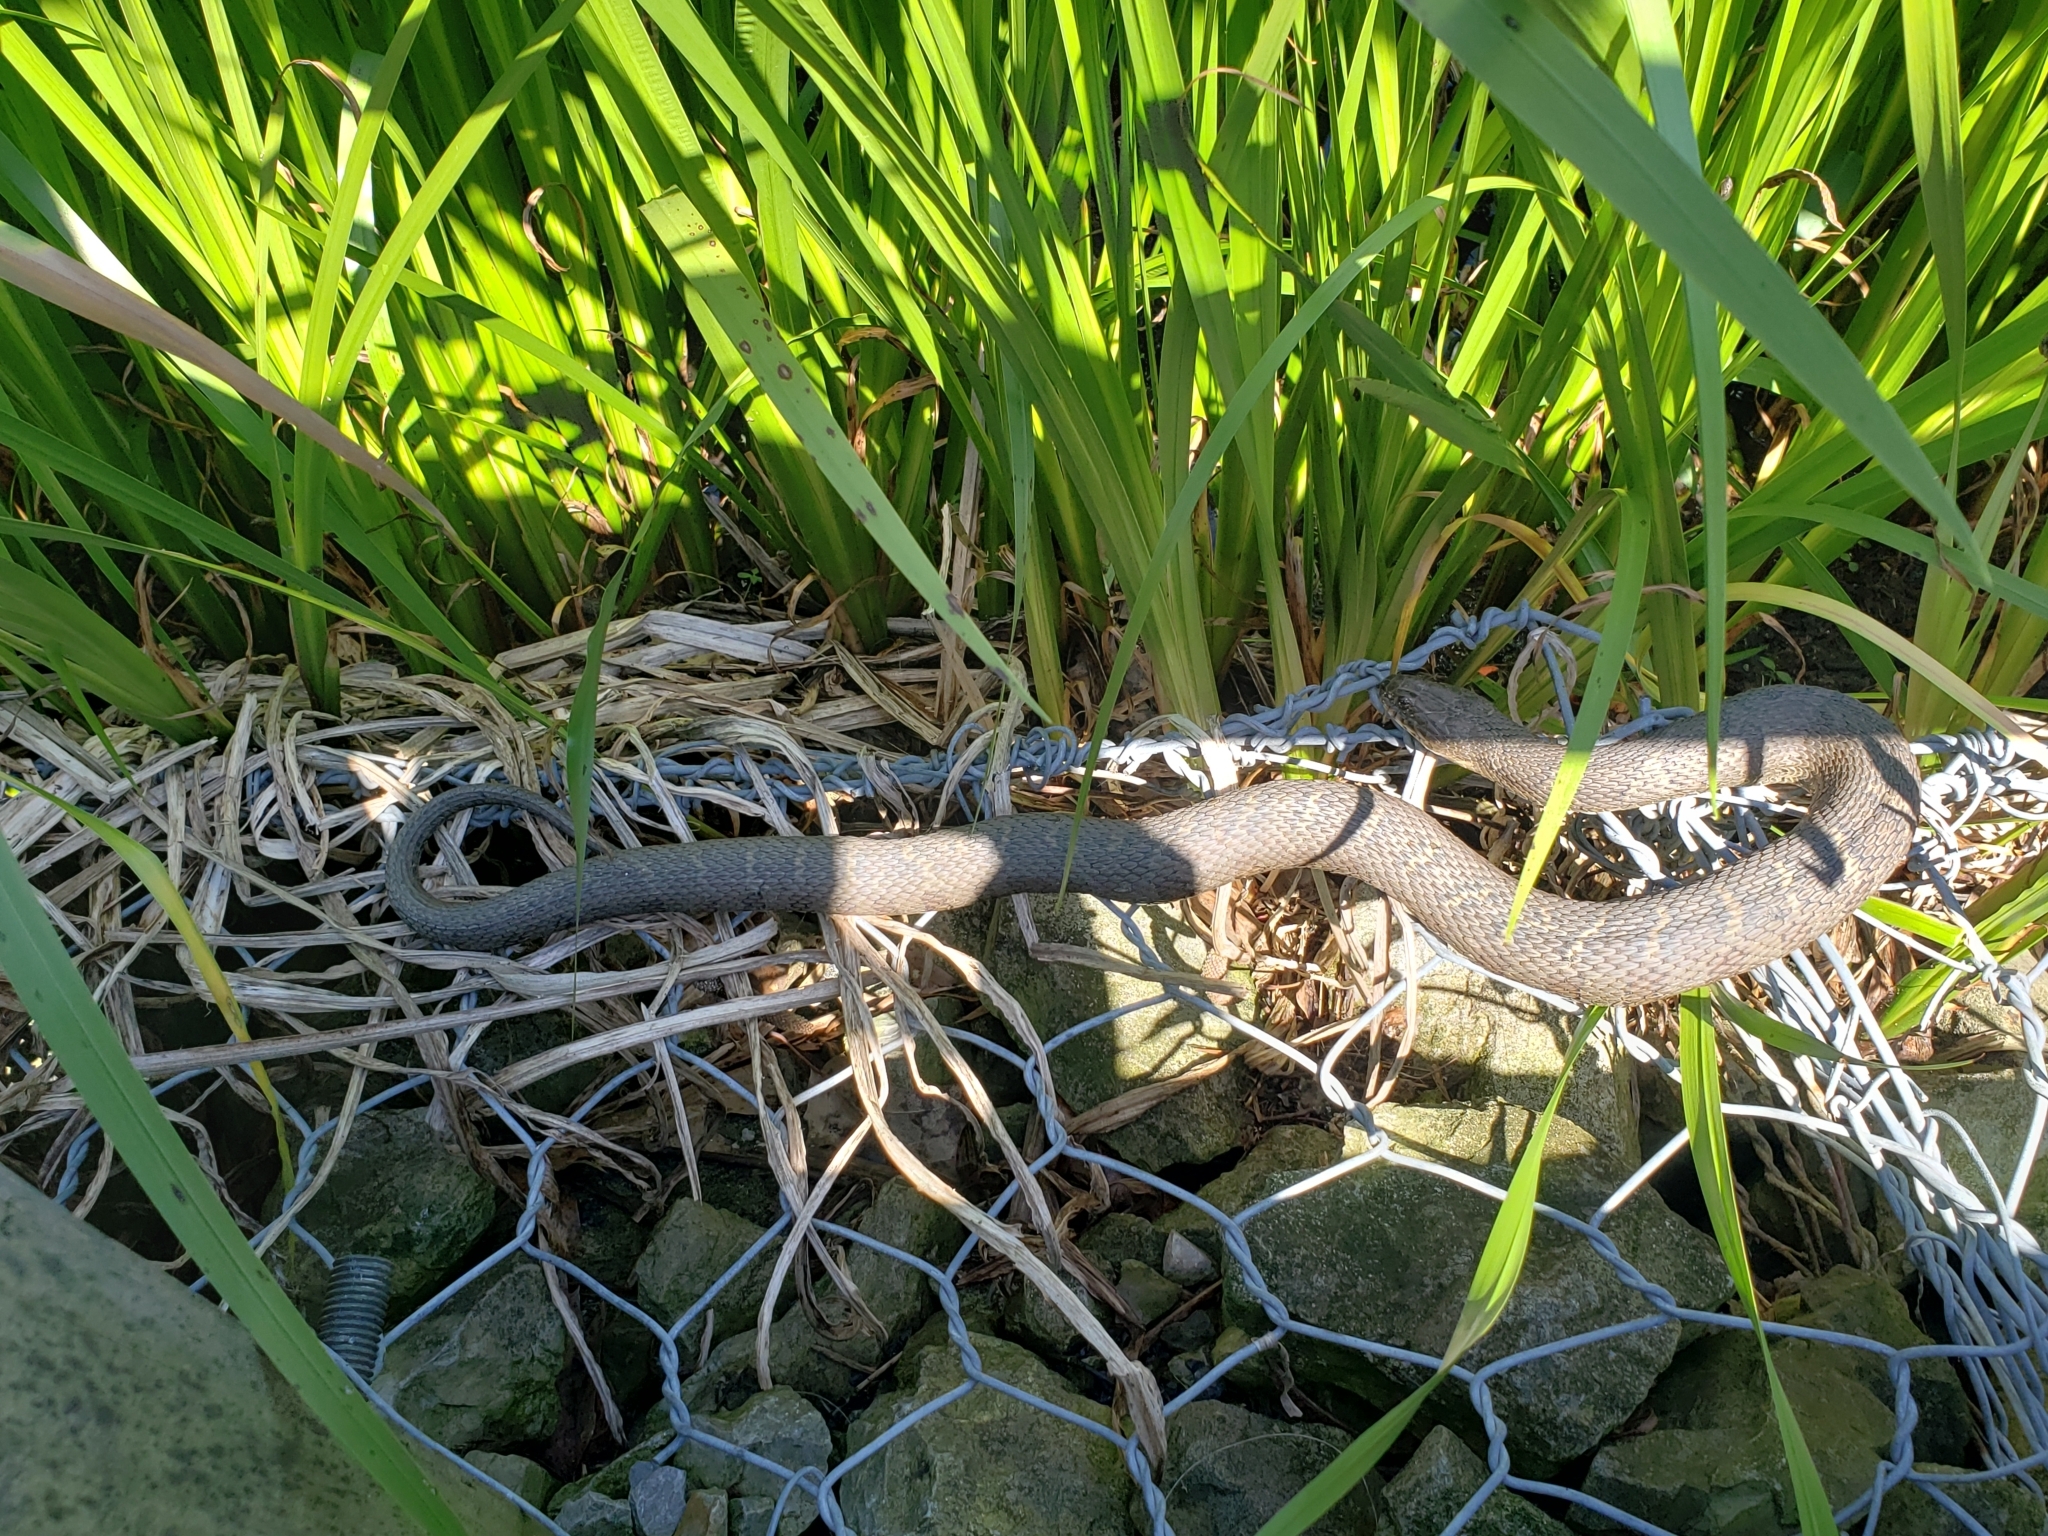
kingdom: Animalia
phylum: Chordata
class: Squamata
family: Colubridae
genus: Nerodia
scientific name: Nerodia sipedon
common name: Northern water snake
